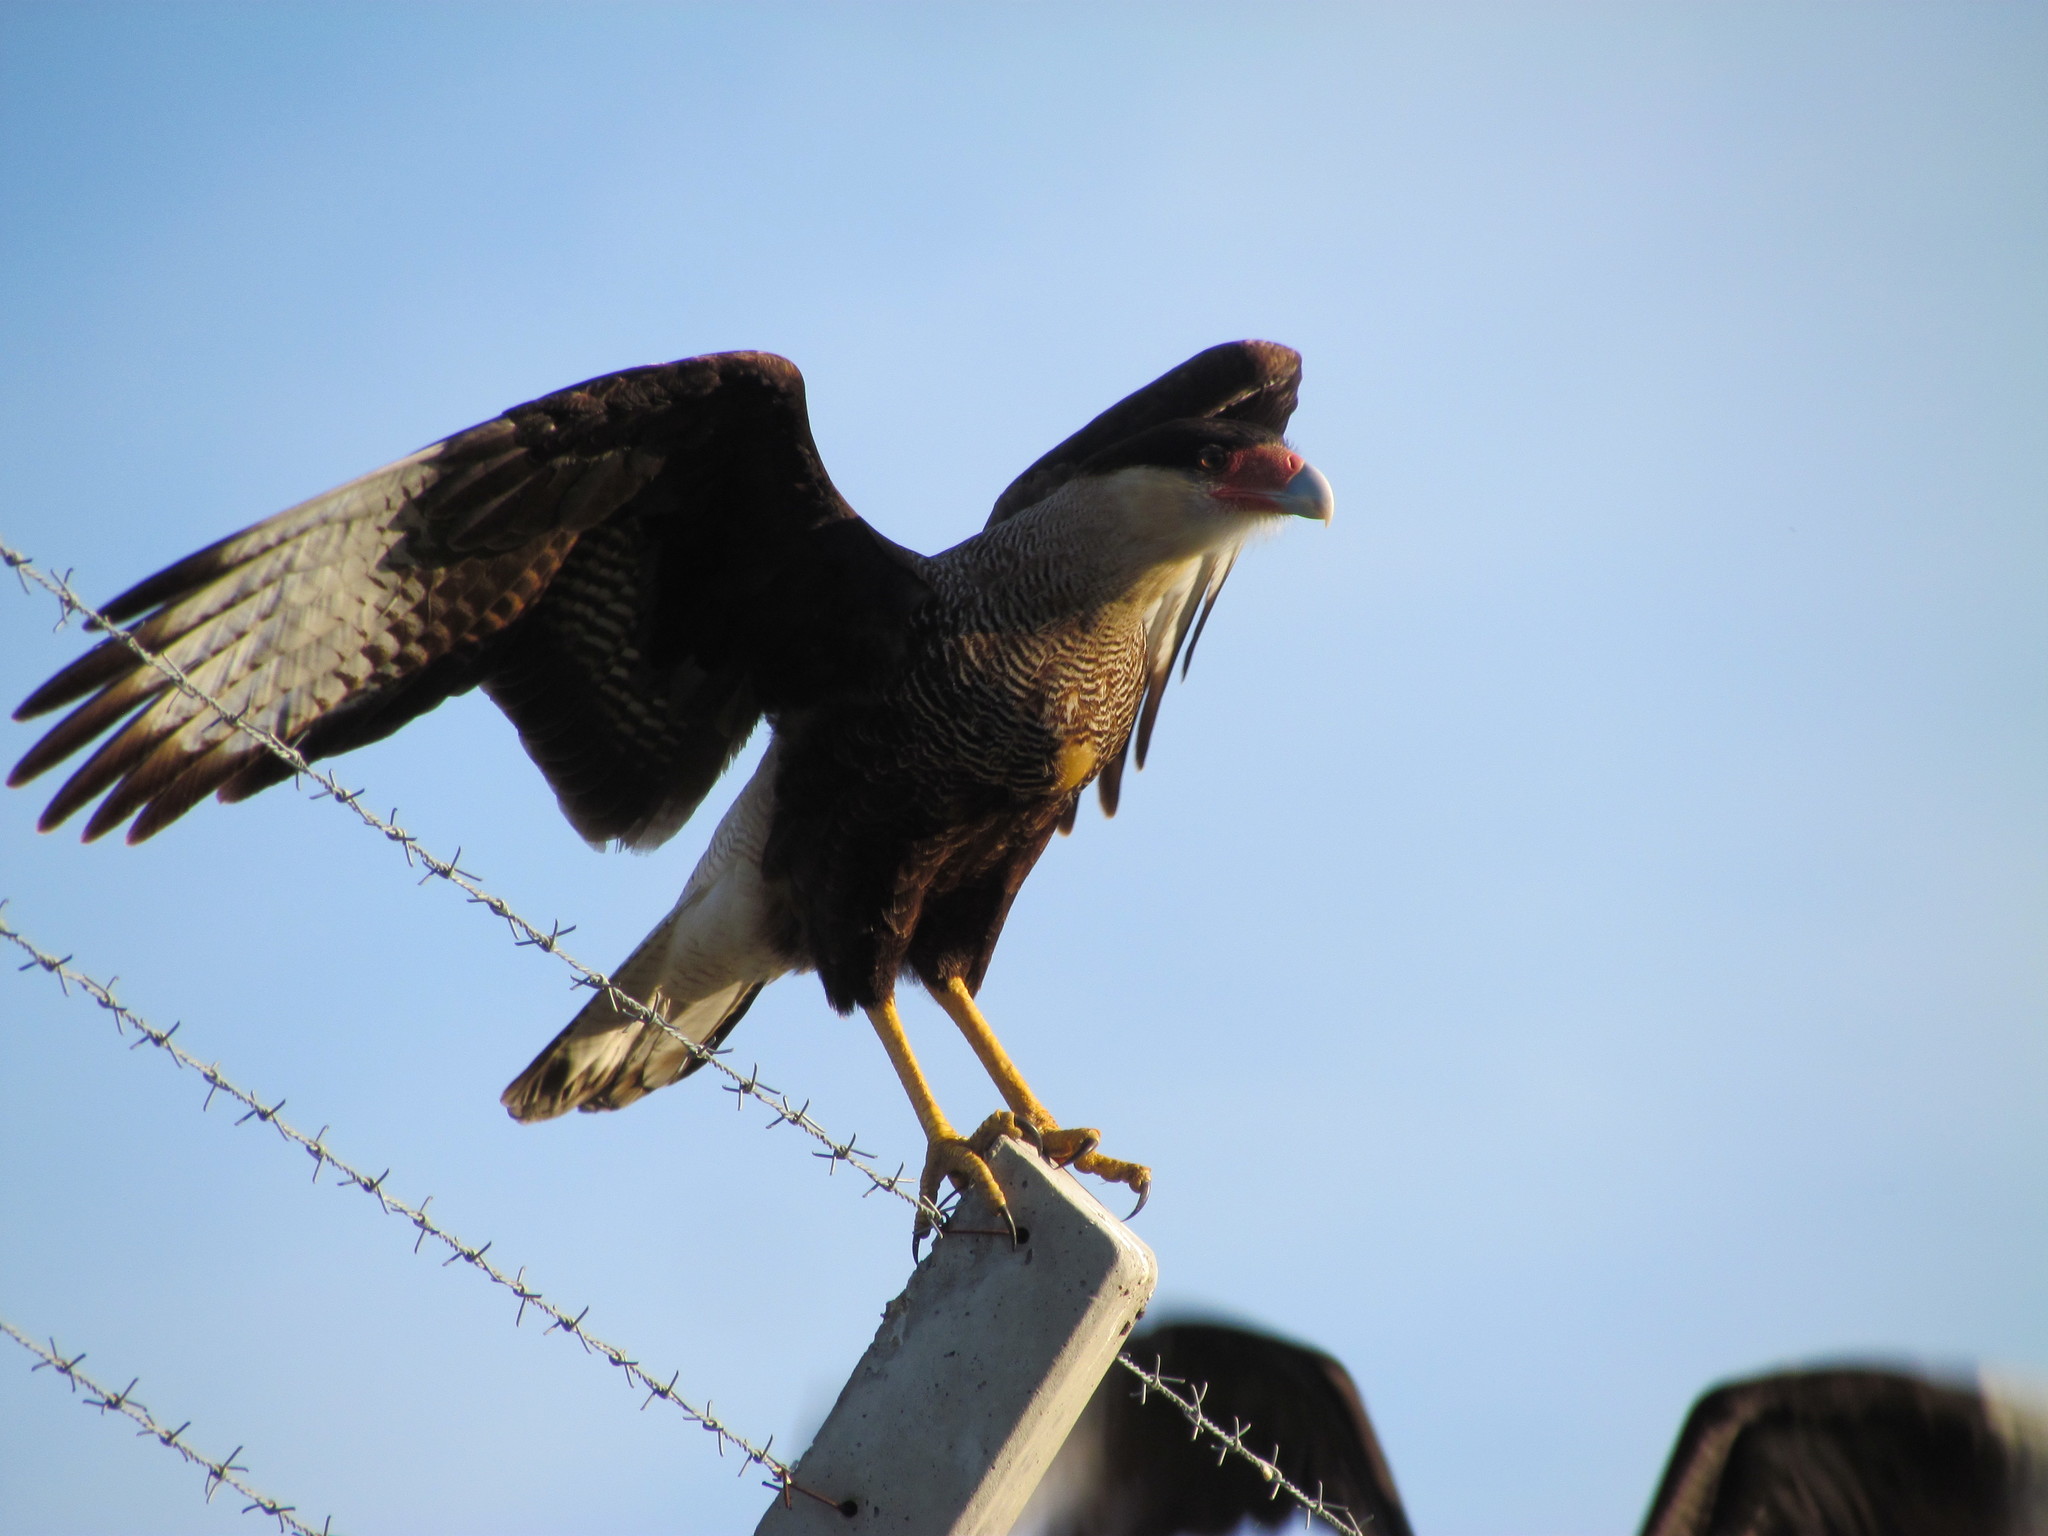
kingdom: Animalia
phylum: Chordata
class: Aves
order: Falconiformes
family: Falconidae
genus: Caracara
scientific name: Caracara plancus
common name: Southern caracara
